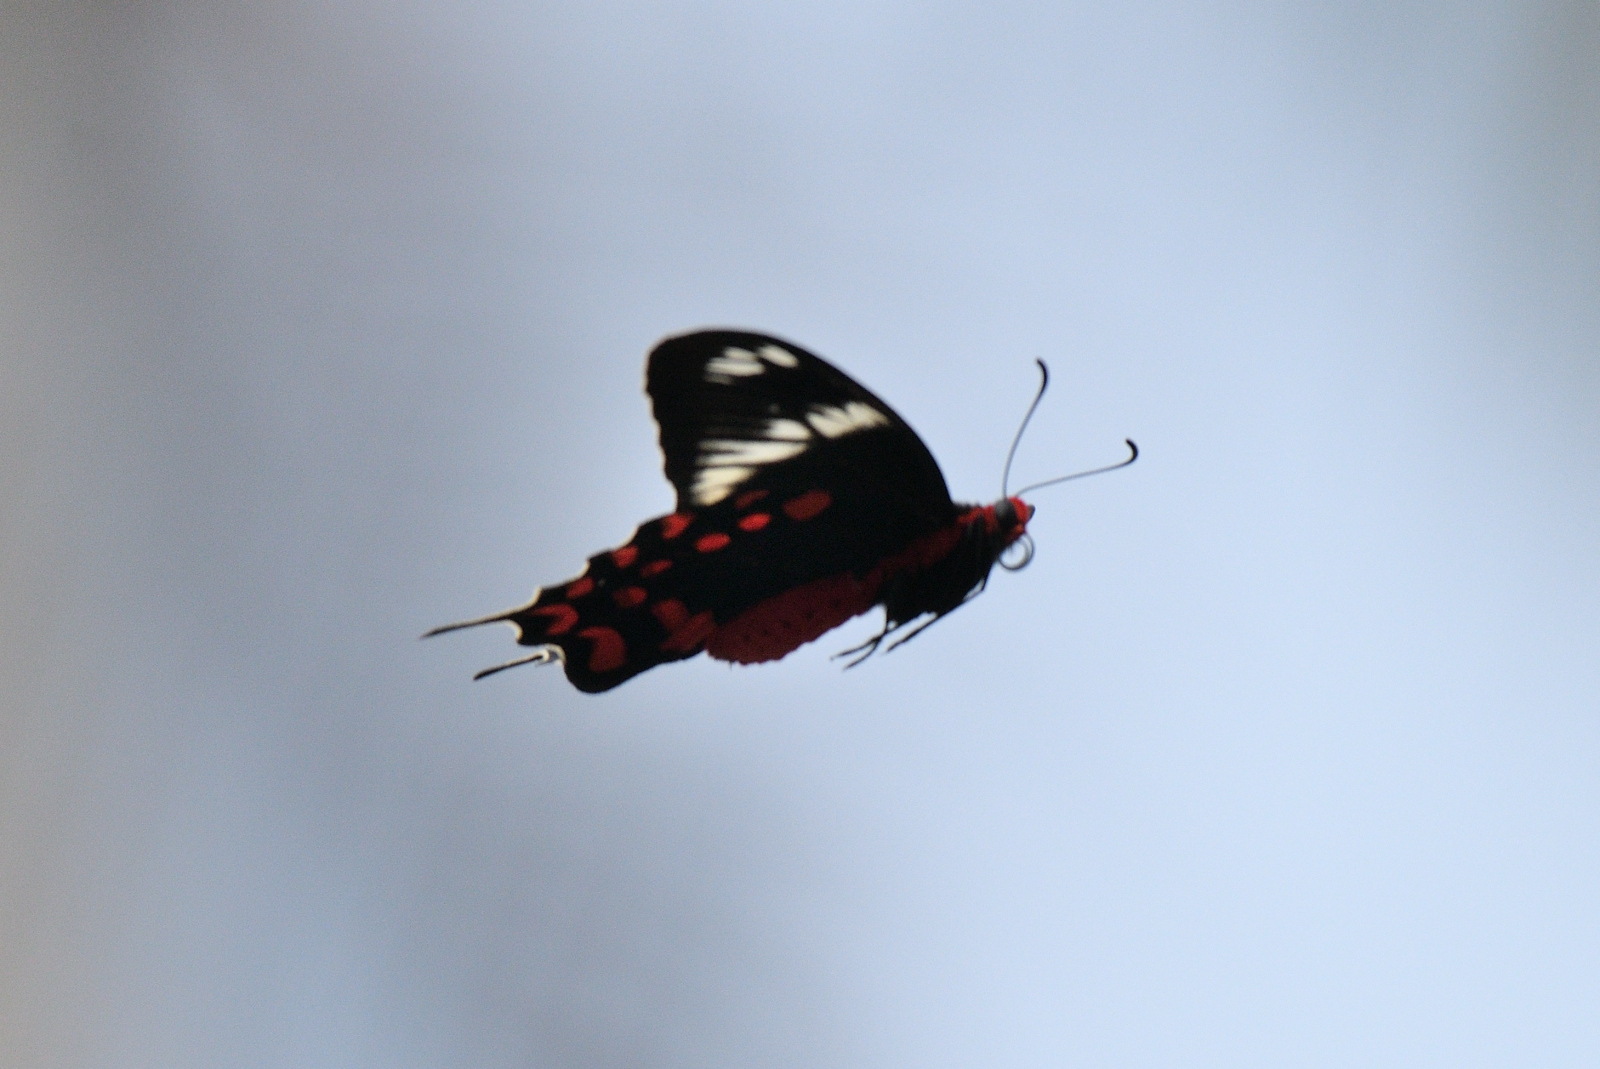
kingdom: Animalia
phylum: Arthropoda
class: Insecta
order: Lepidoptera
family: Papilionidae
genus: Pachliopta
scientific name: Pachliopta hector
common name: Crimson rose
